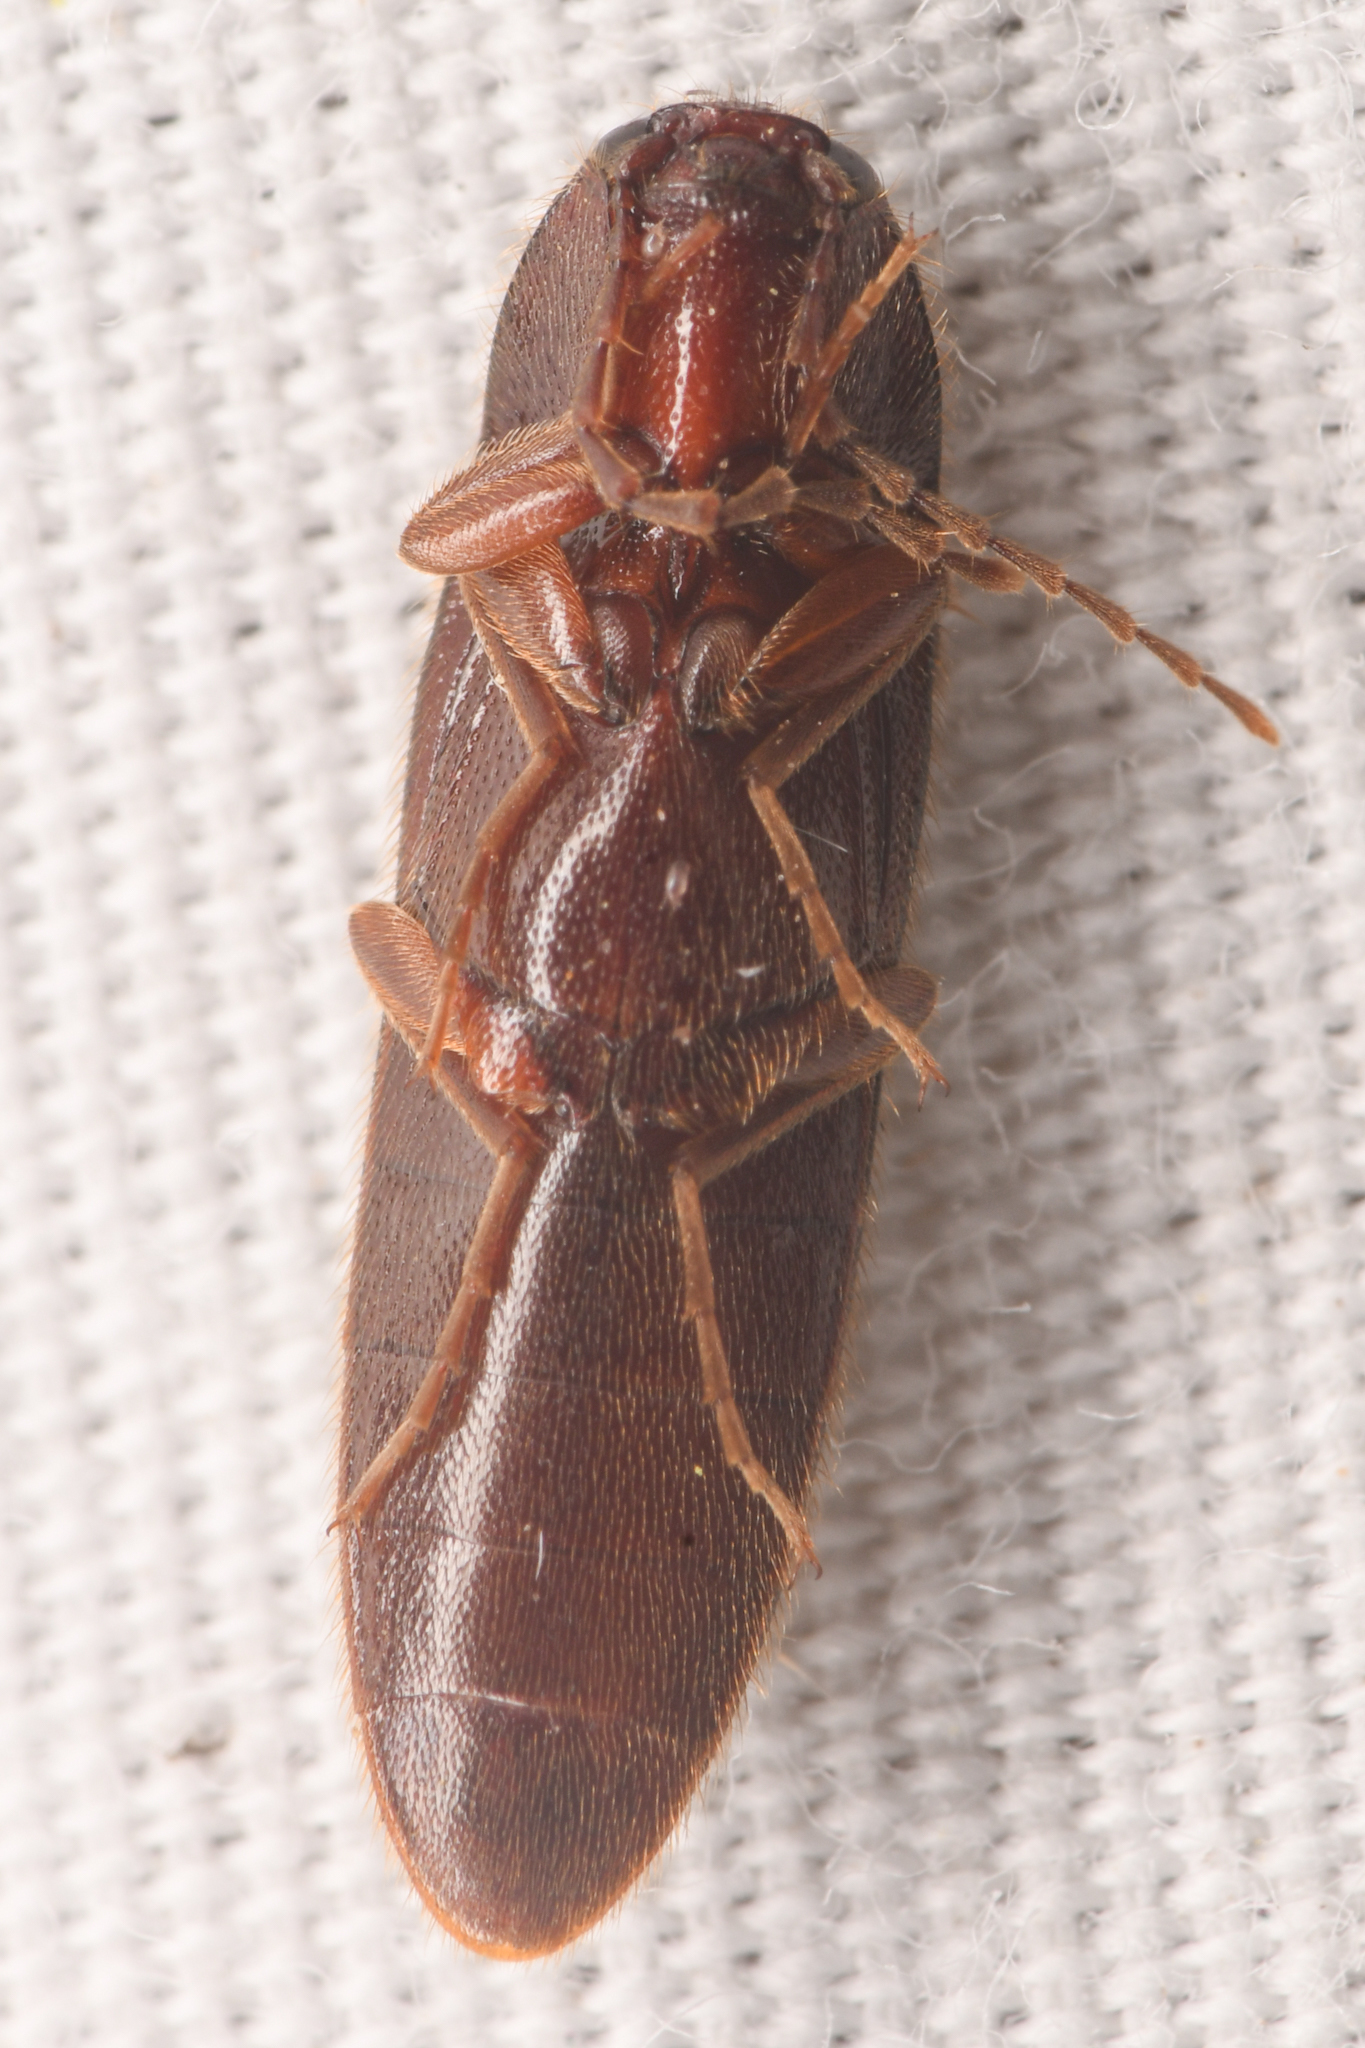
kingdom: Animalia
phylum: Arthropoda
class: Insecta
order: Coleoptera
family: Elateridae
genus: Ampedus
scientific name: Ampedus
